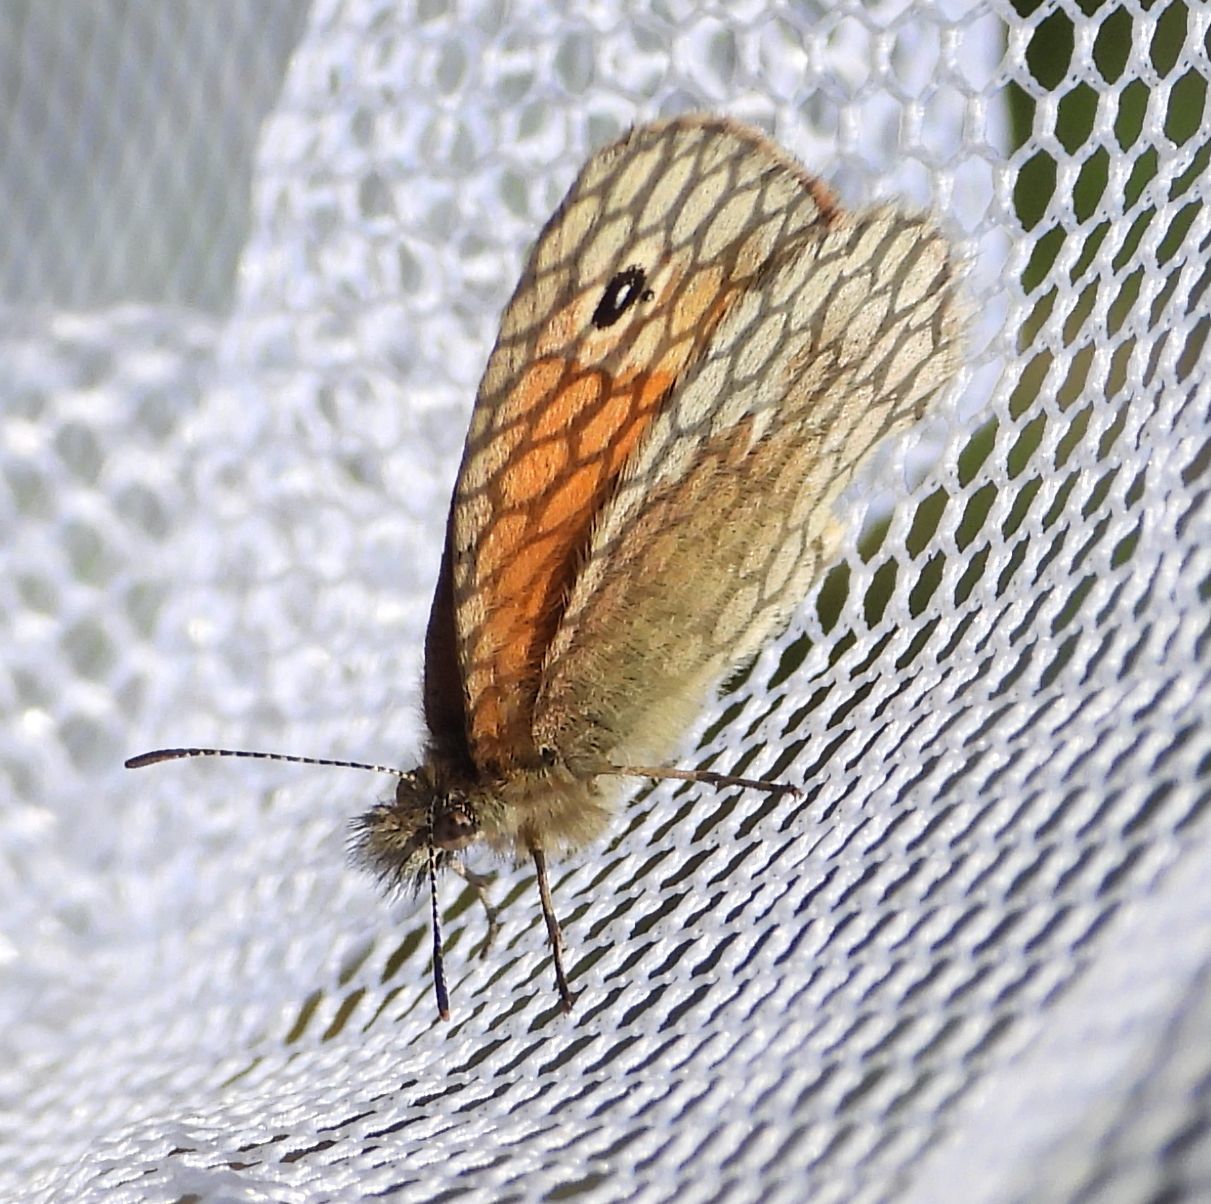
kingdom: Animalia
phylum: Arthropoda
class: Insecta
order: Lepidoptera
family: Nymphalidae
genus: Coenonympha
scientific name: Coenonympha california
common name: Common ringlet
